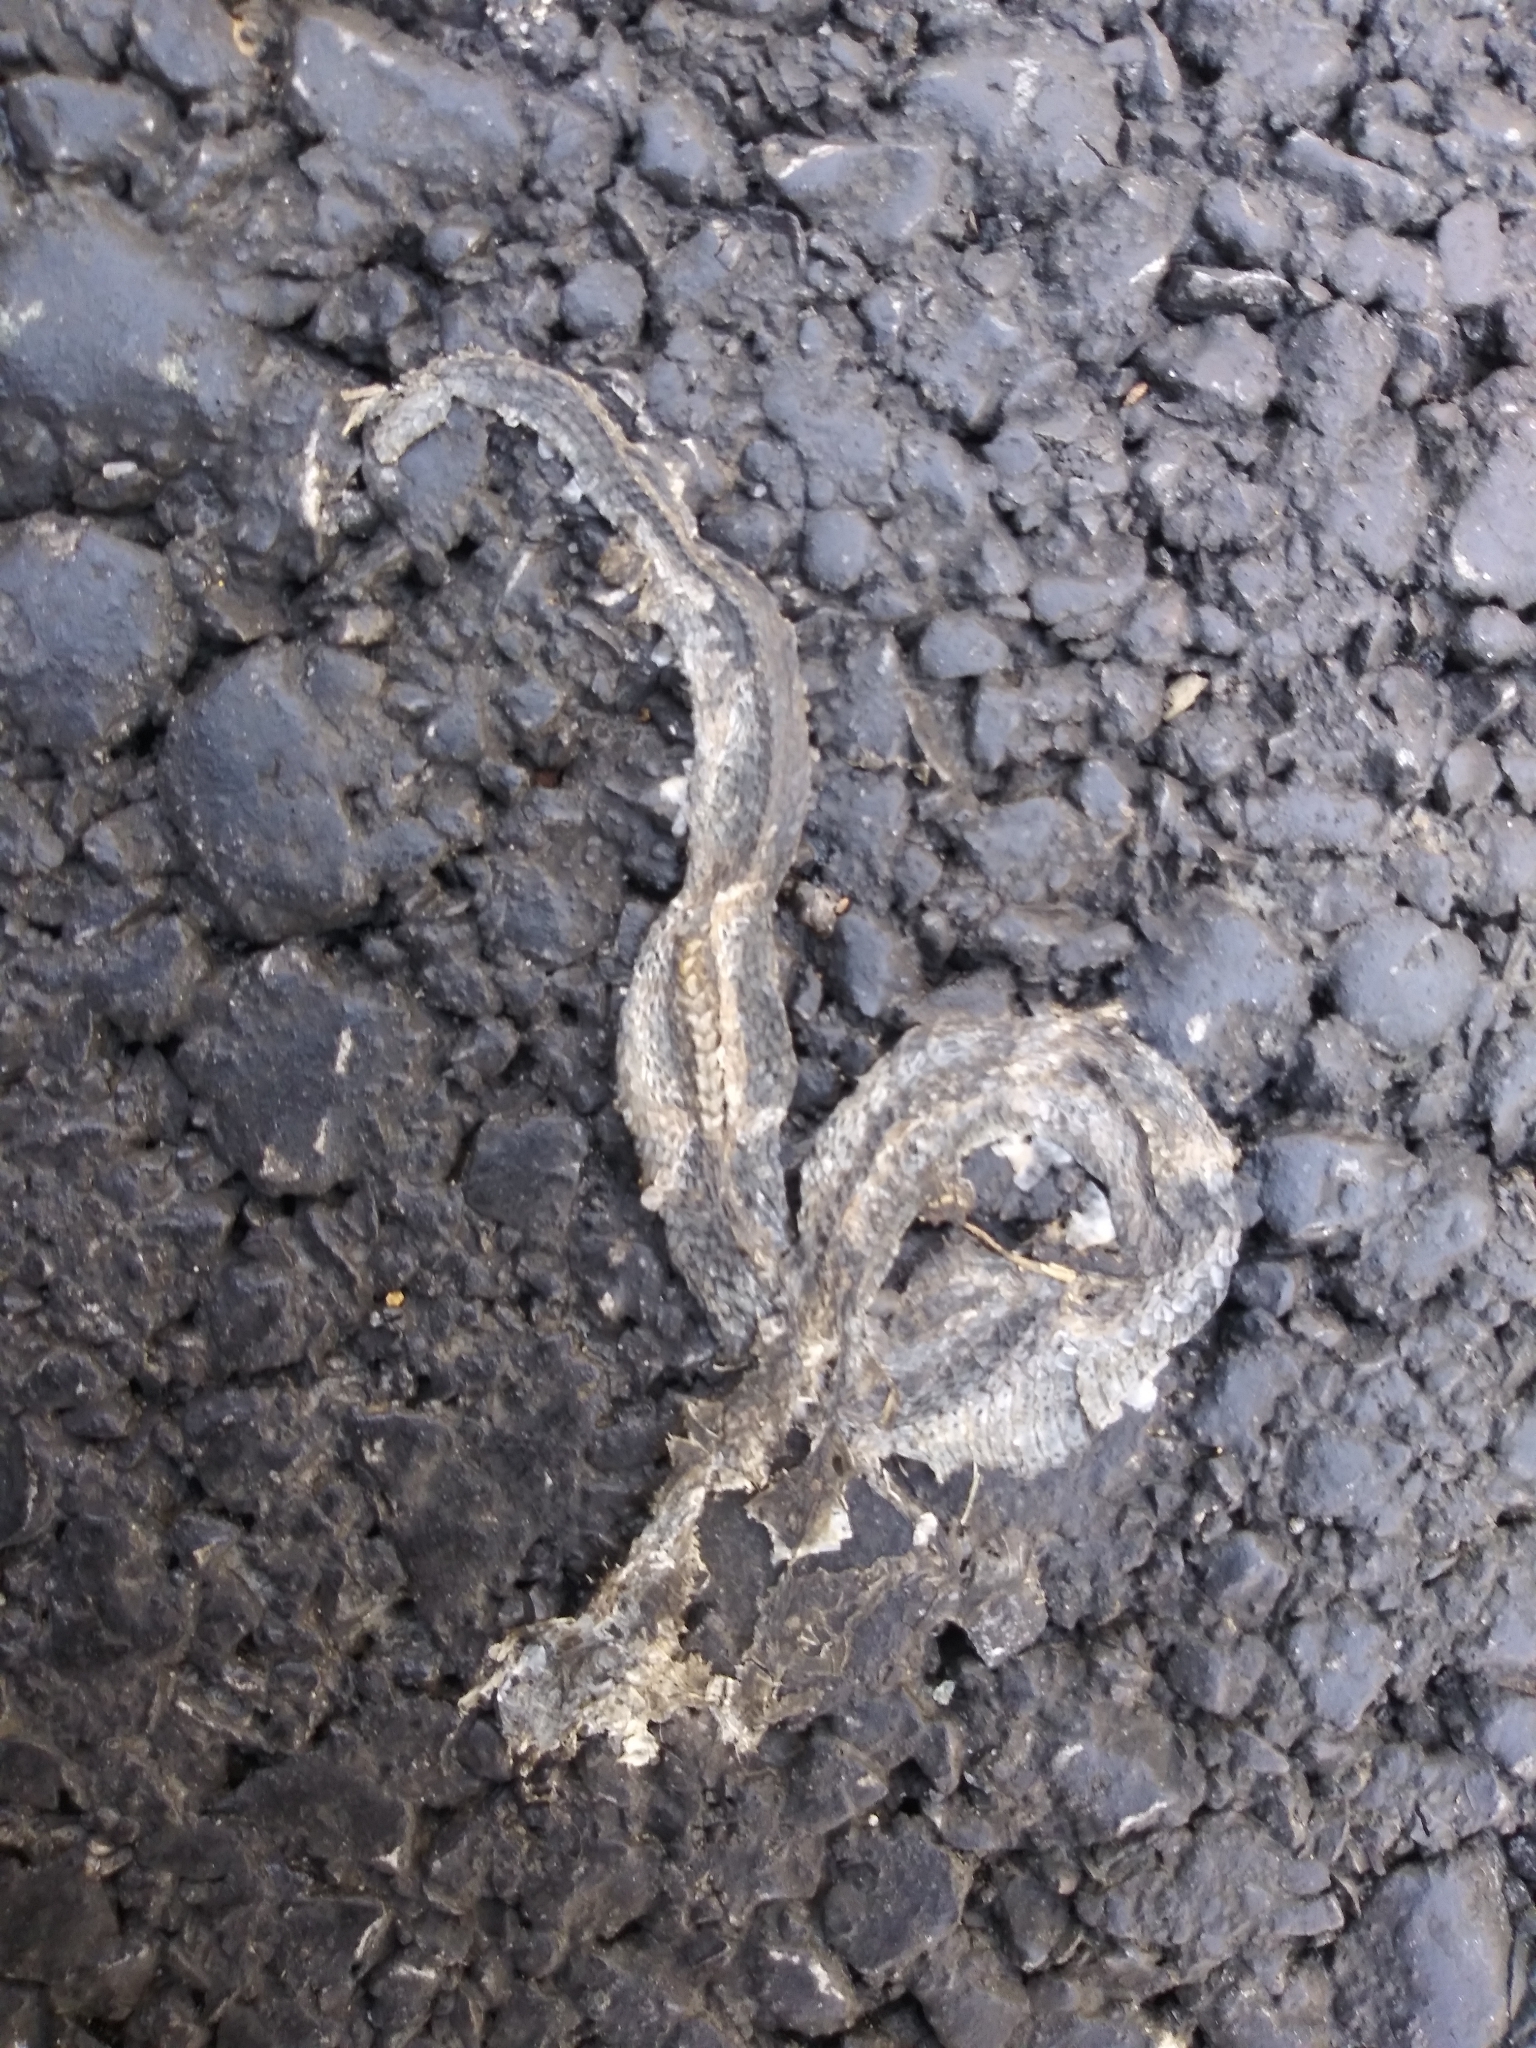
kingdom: Animalia
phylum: Chordata
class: Squamata
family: Colubridae
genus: Storeria
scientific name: Storeria dekayi
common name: (dekay’s) brown snake
